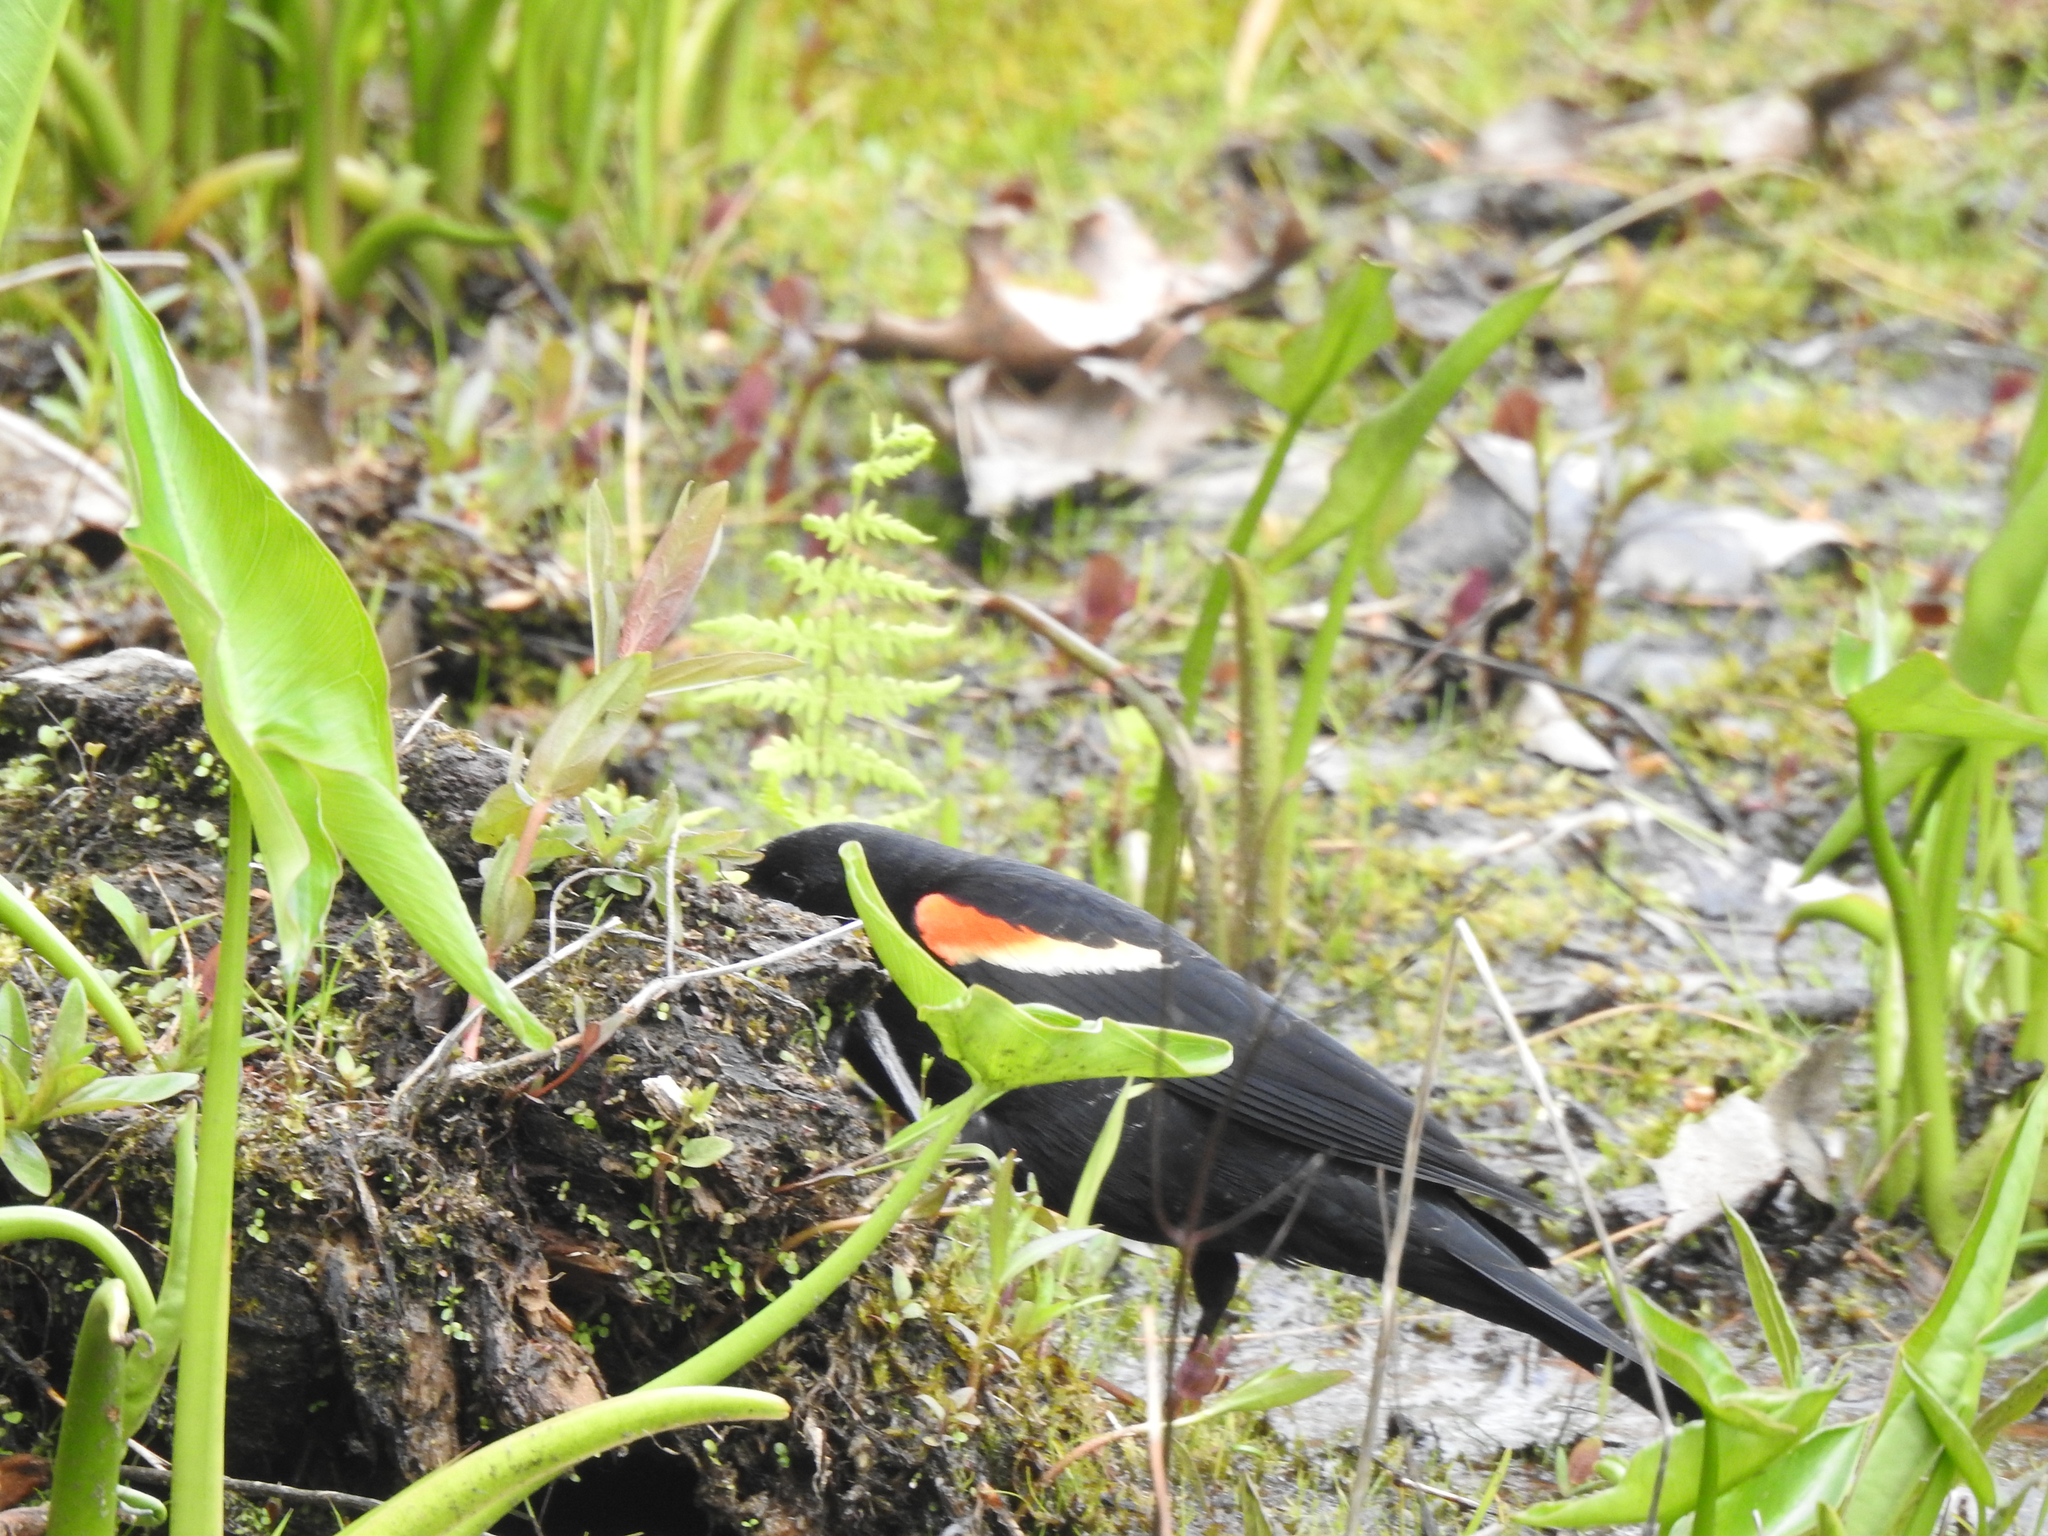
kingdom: Animalia
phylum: Chordata
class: Aves
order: Passeriformes
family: Icteridae
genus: Agelaius
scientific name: Agelaius phoeniceus
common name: Red-winged blackbird
